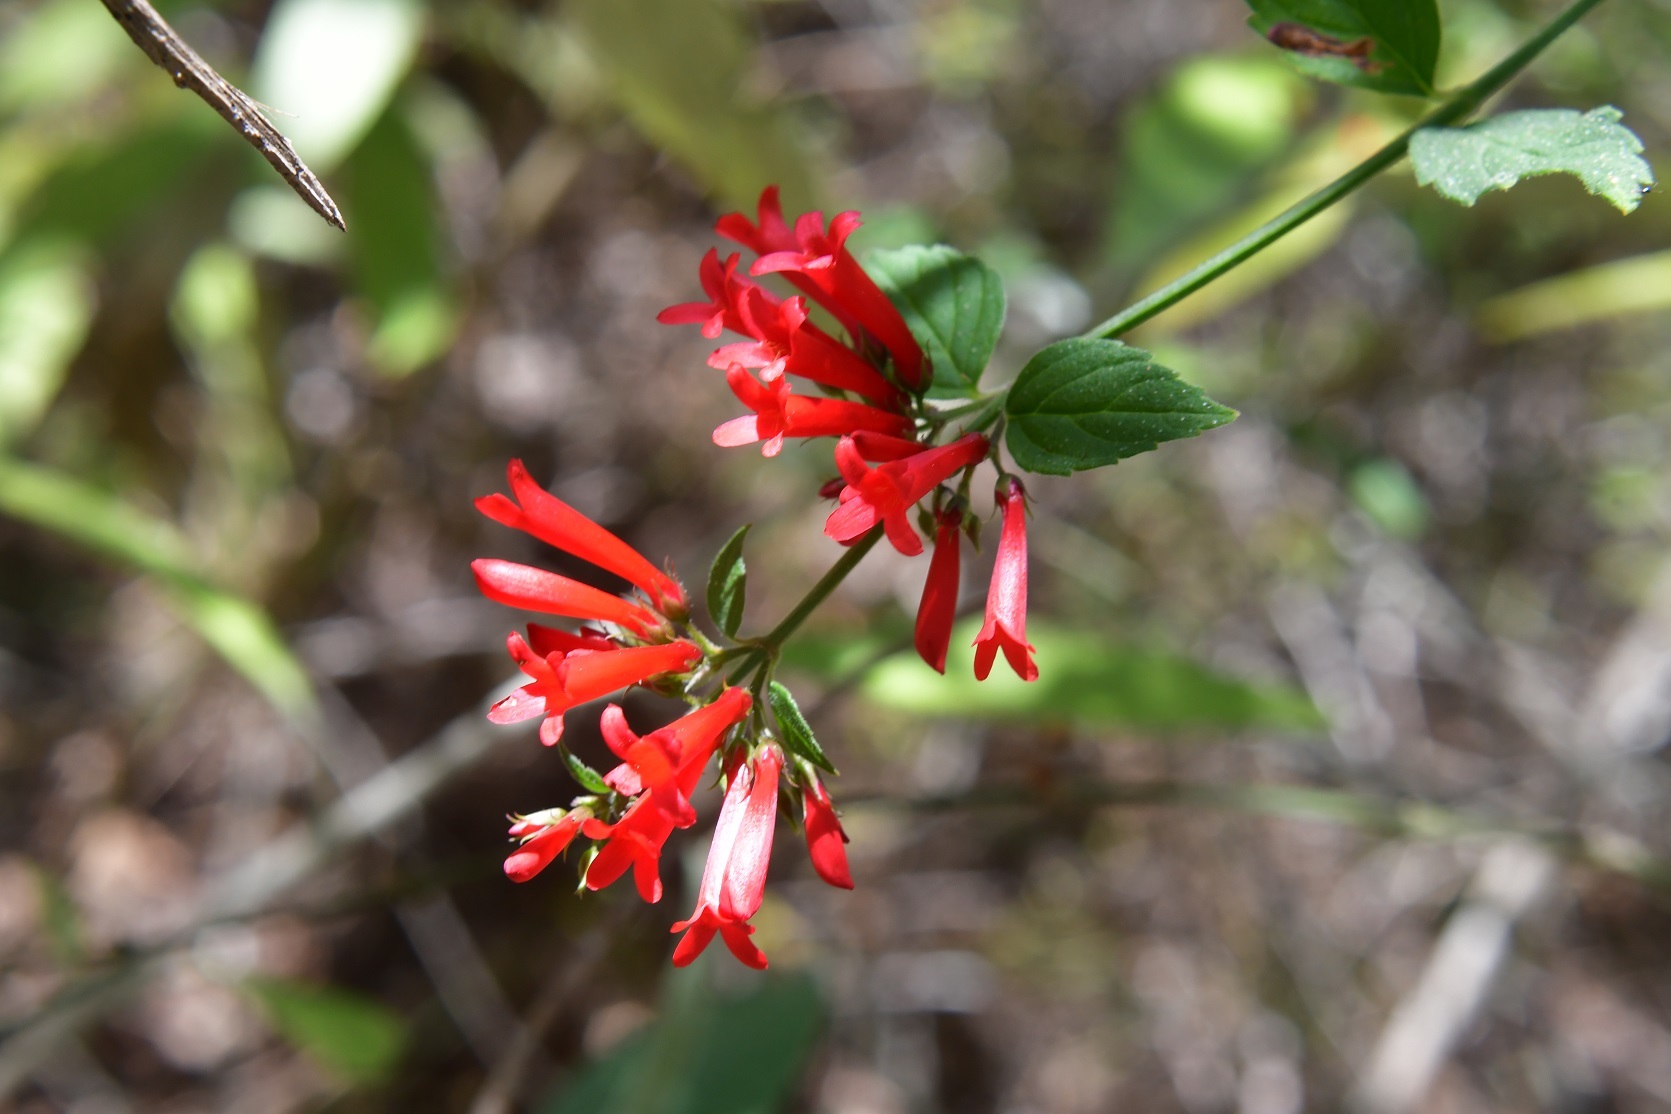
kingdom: Plantae
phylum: Tracheophyta
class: Magnoliopsida
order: Lamiales
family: Plantaginaceae
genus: Russelia
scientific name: Russelia sarmentosa
